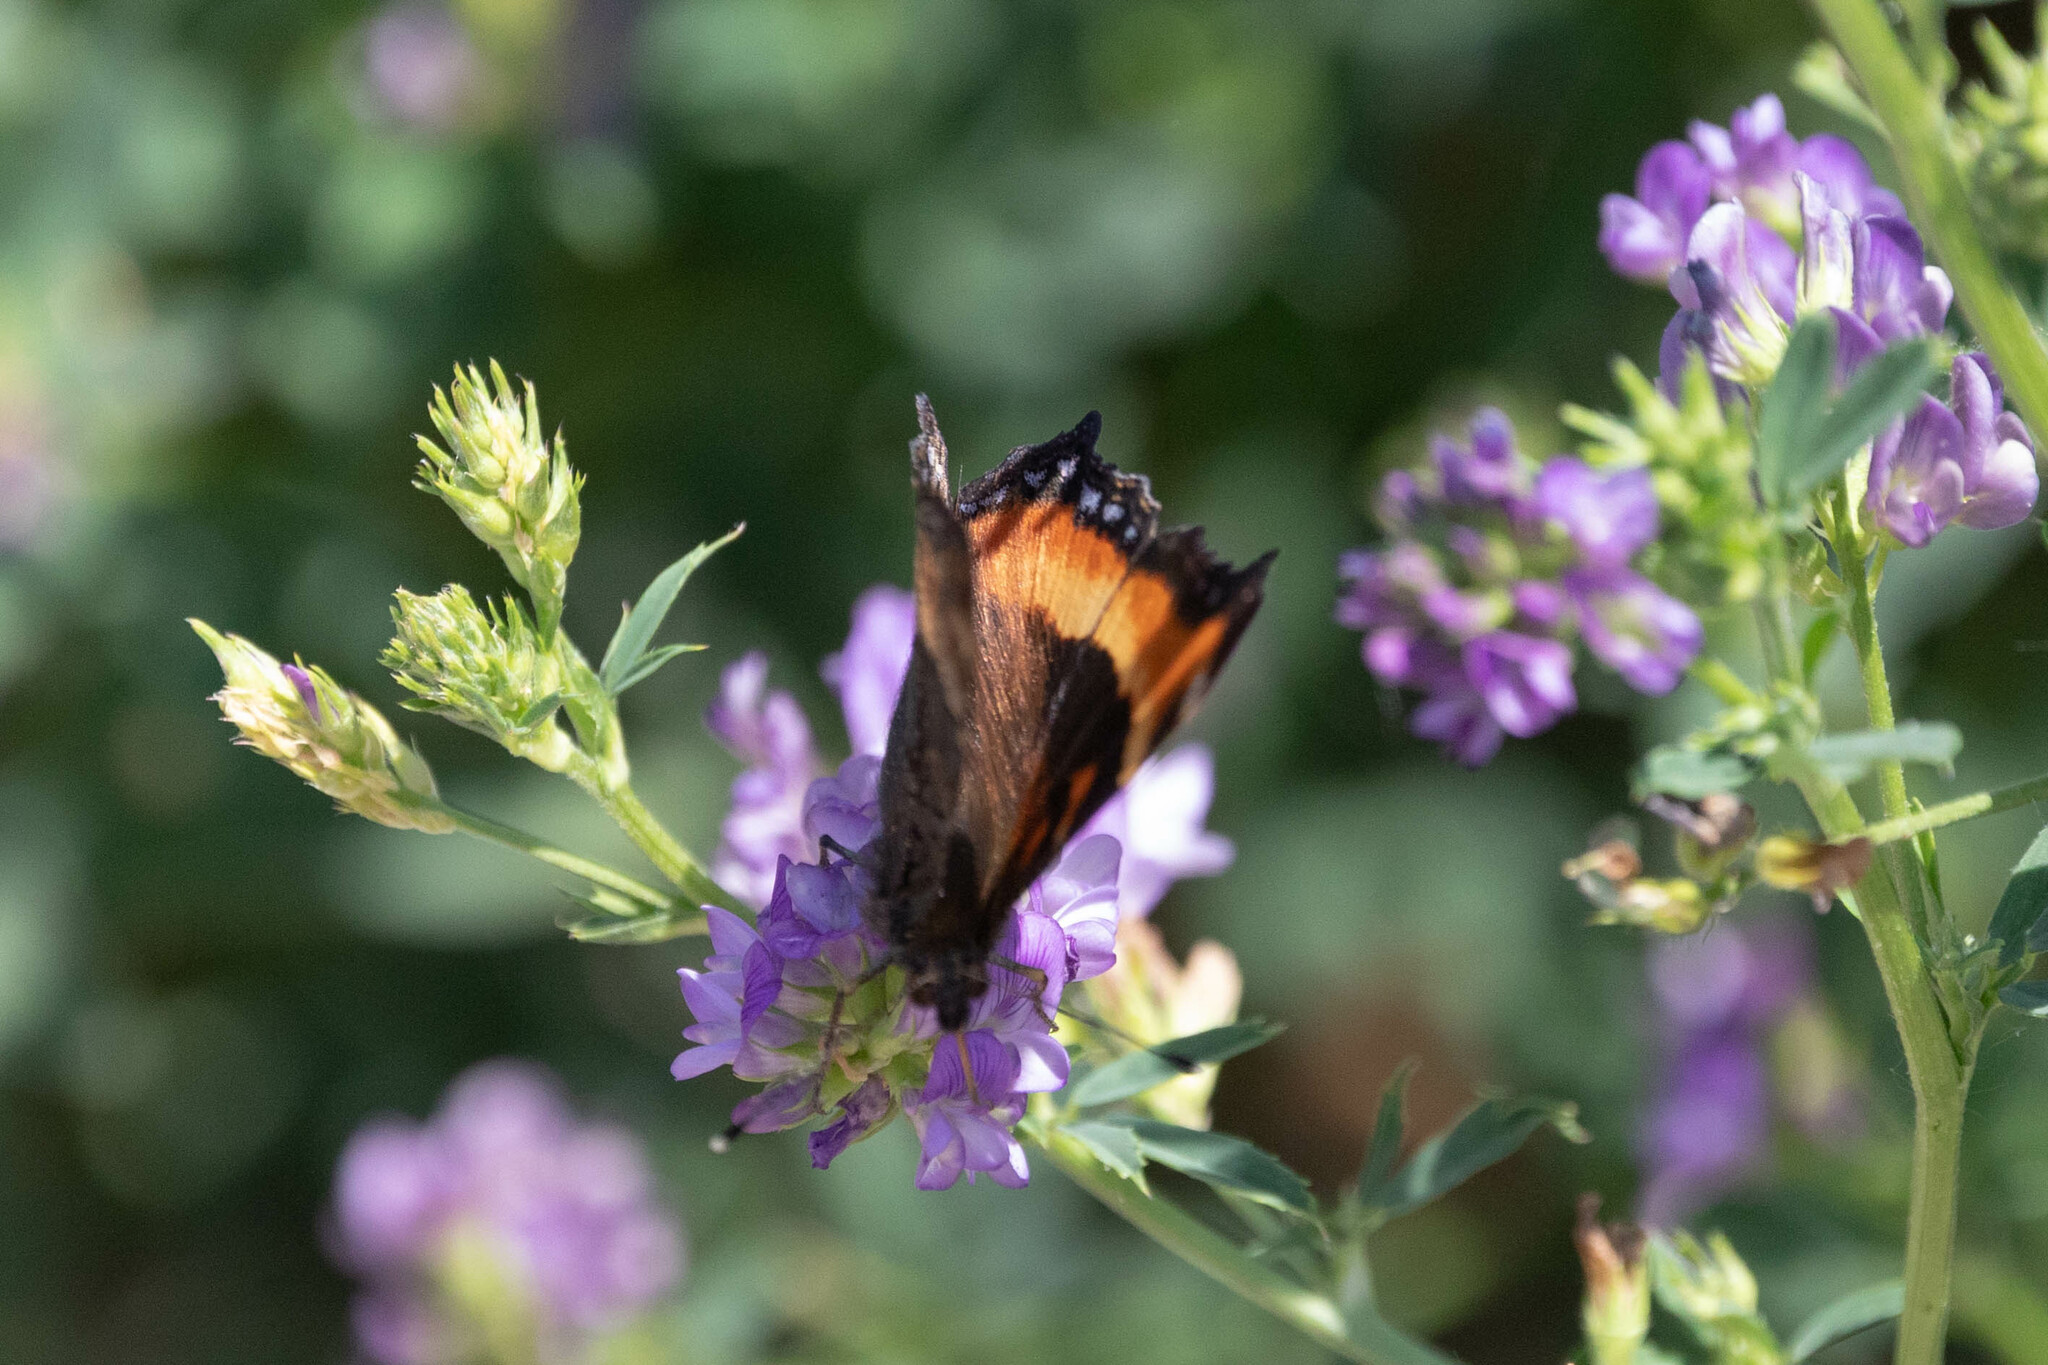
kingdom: Animalia
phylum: Arthropoda
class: Insecta
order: Lepidoptera
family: Nymphalidae
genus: Aglais
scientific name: Aglais milberti
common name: Milbert's tortoiseshell
